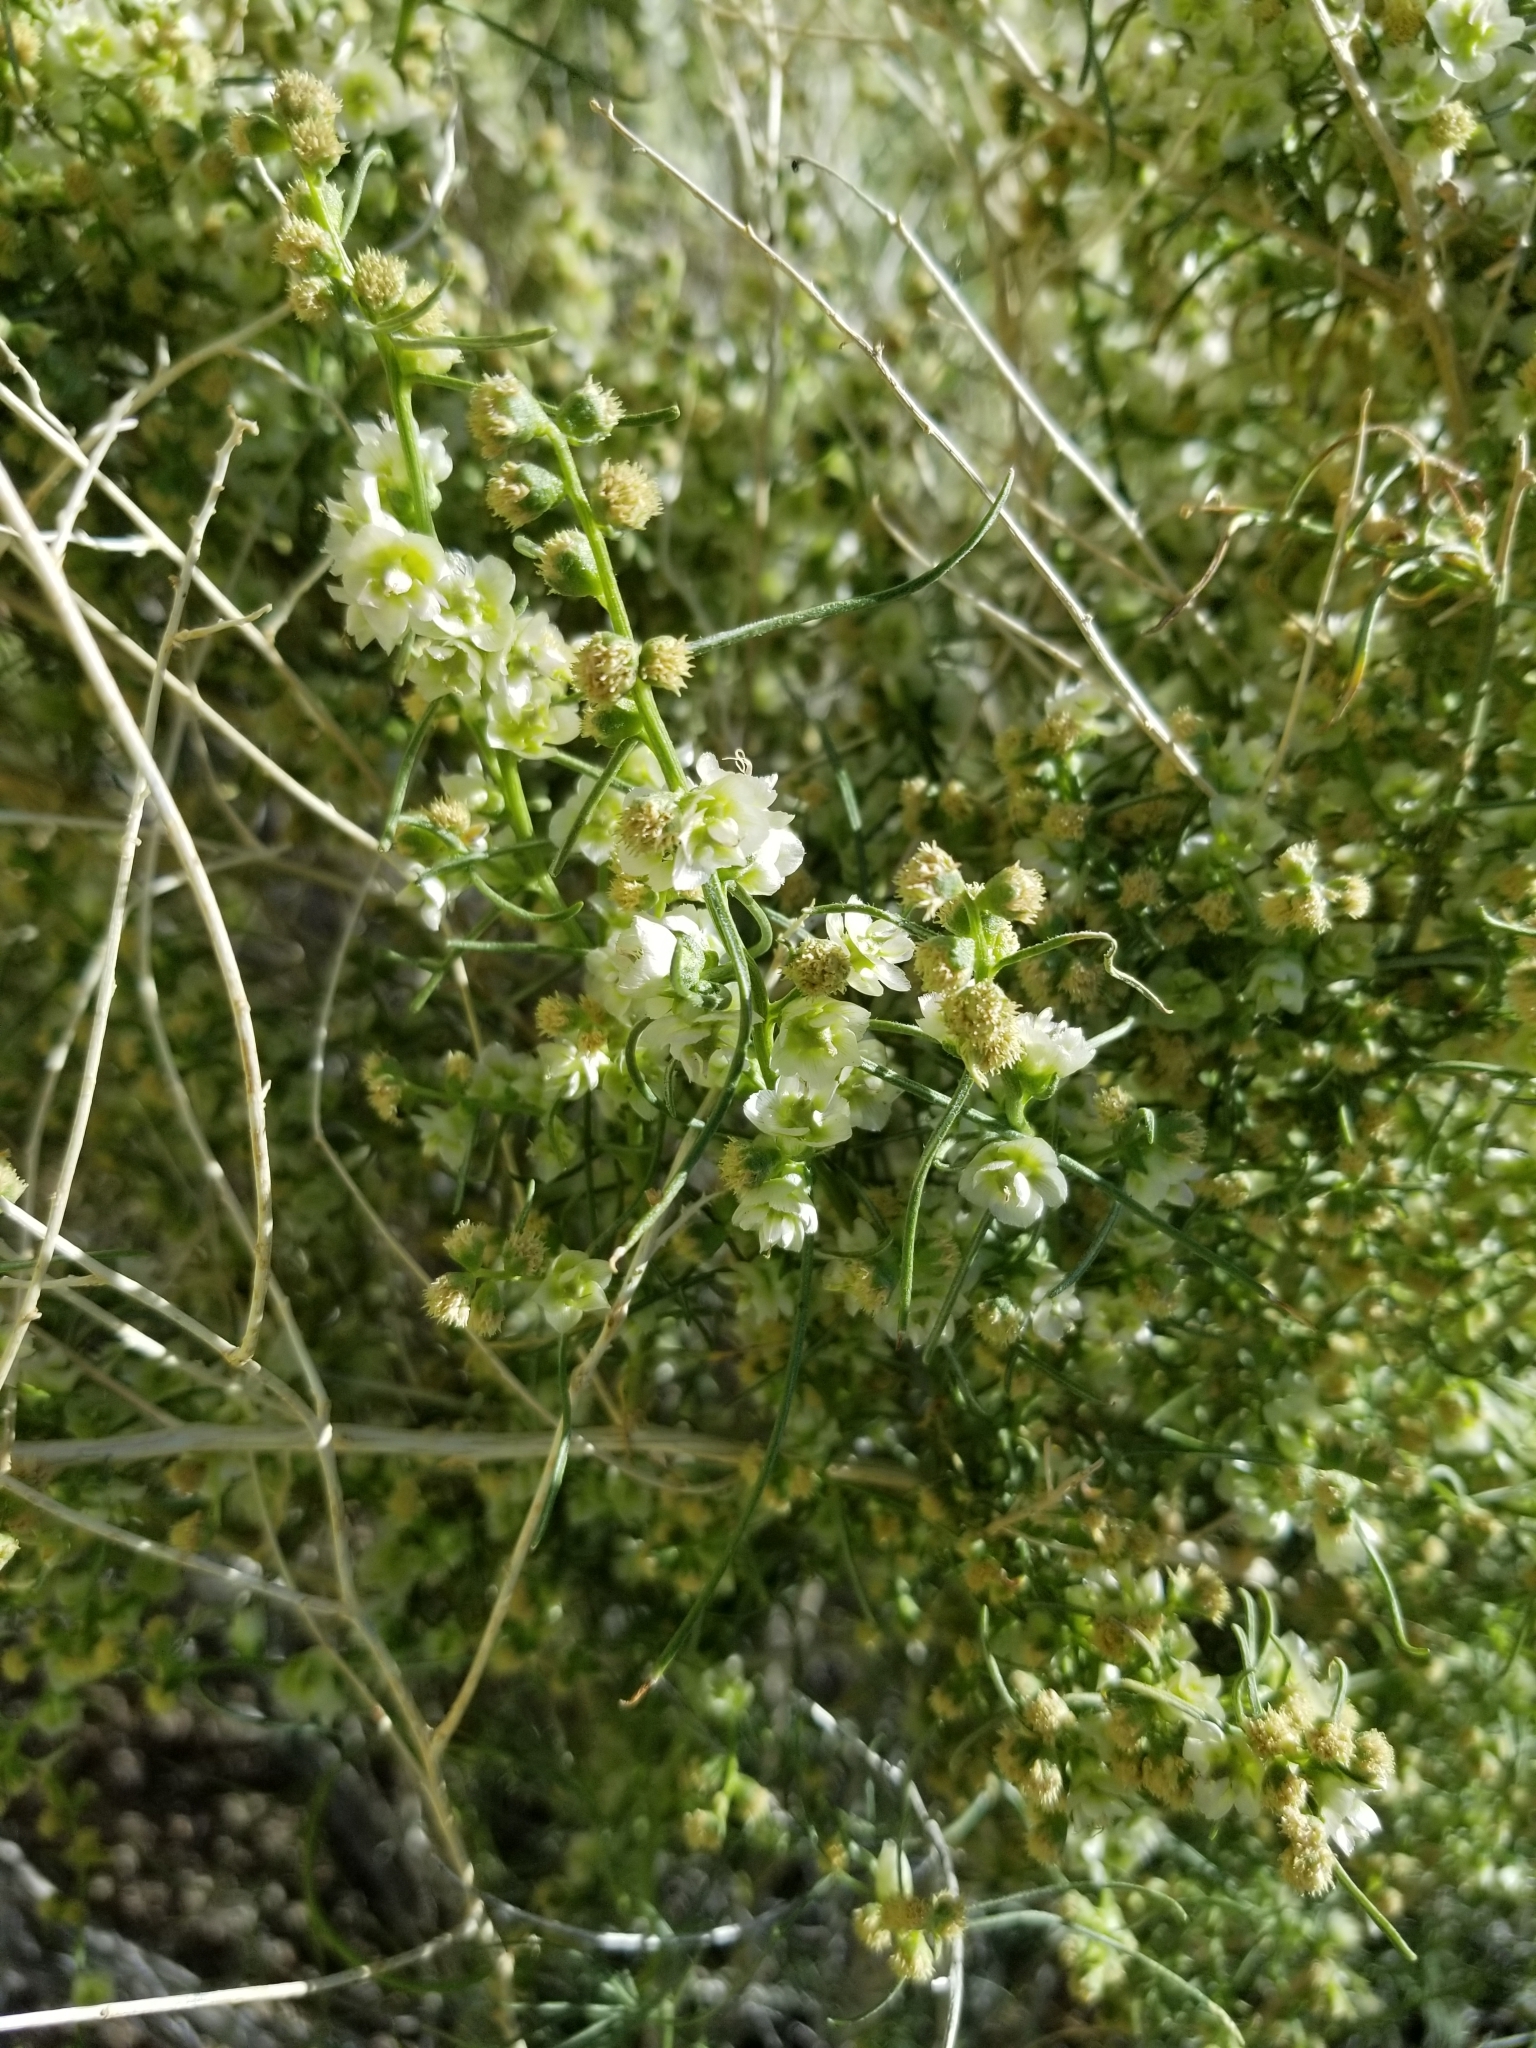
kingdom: Plantae
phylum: Tracheophyta
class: Magnoliopsida
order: Asterales
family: Asteraceae
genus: Ambrosia
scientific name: Ambrosia salsola
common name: Burrobrush
